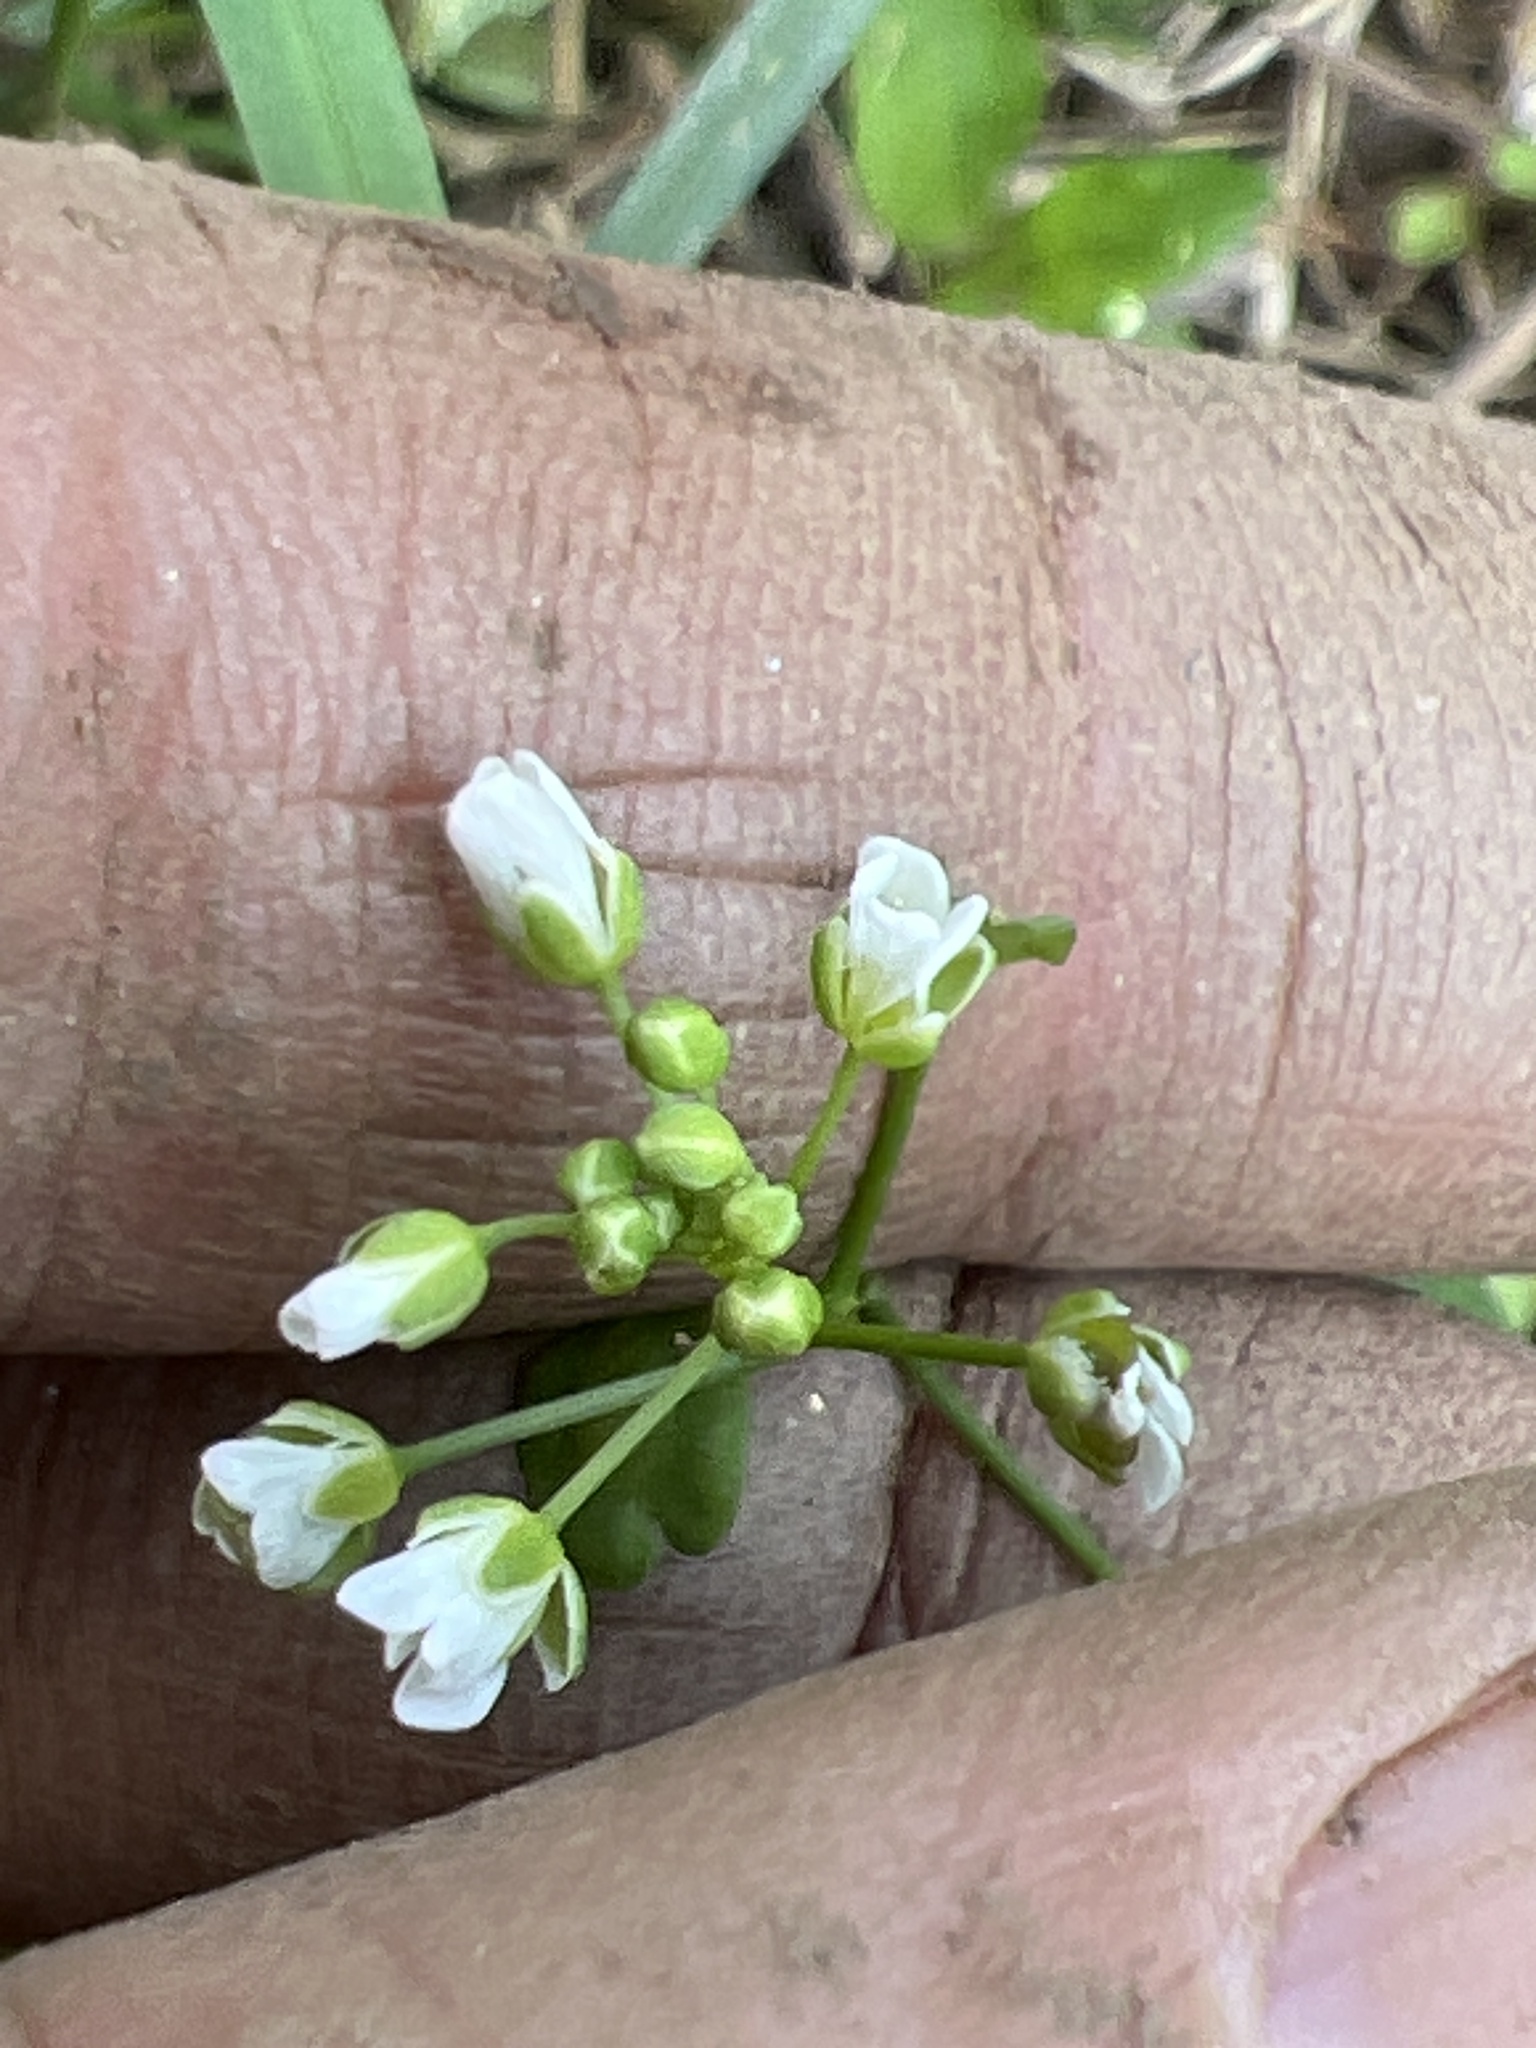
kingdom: Plantae
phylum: Tracheophyta
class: Magnoliopsida
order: Brassicales
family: Brassicaceae
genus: Thlaspi
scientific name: Thlaspi arvense
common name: Field pennycress
